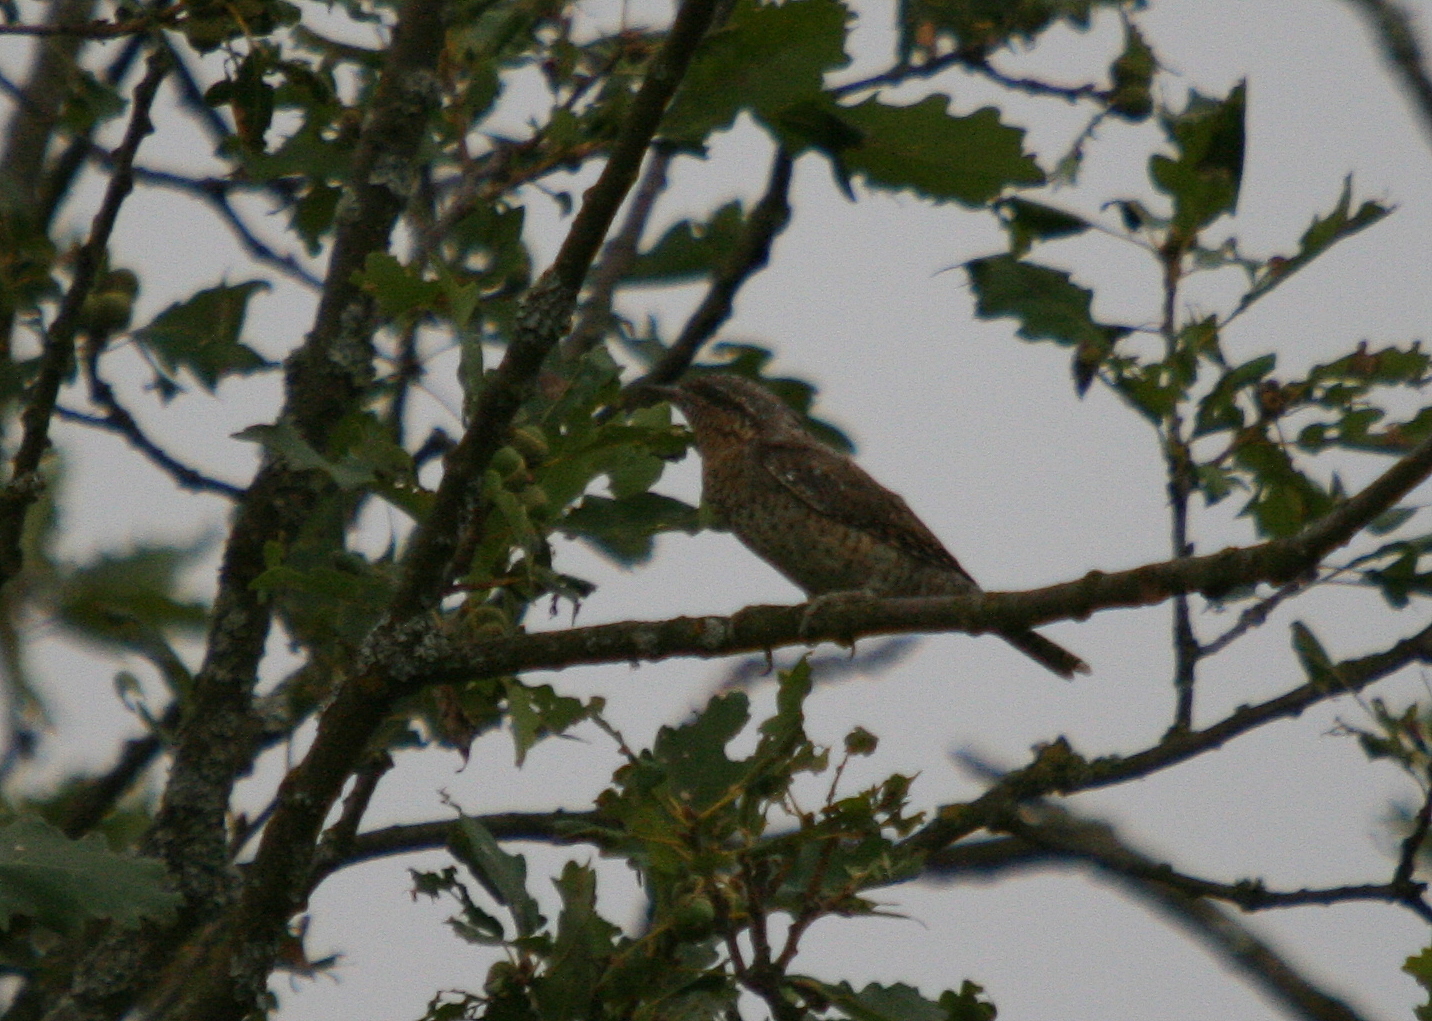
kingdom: Animalia
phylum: Chordata
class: Aves
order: Piciformes
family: Picidae
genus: Jynx
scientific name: Jynx torquilla
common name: Eurasian wryneck
